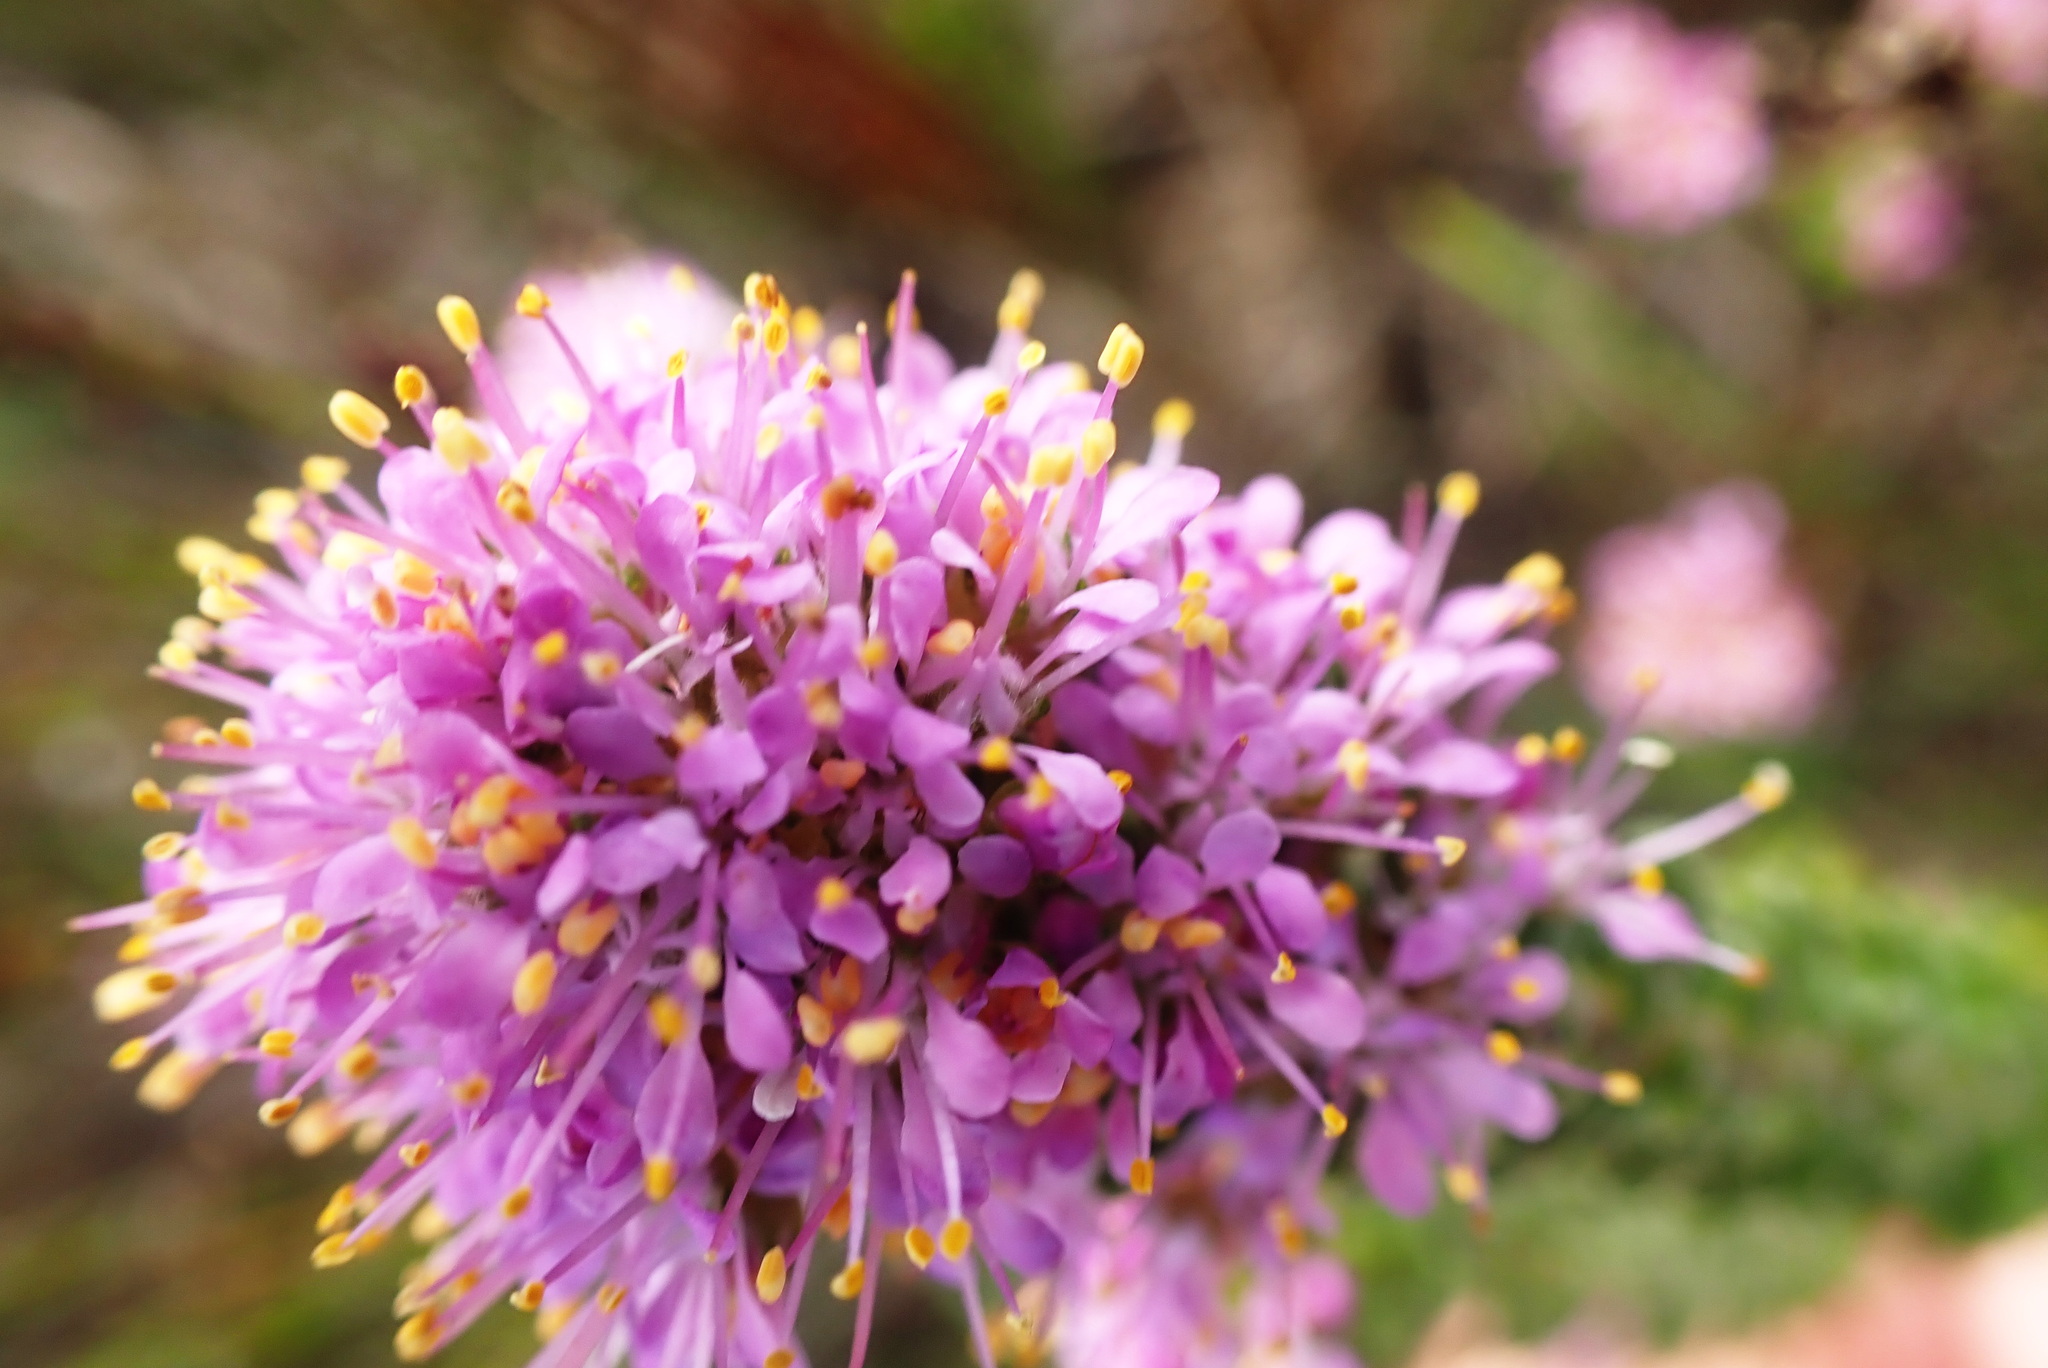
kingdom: Plantae
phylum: Tracheophyta
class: Magnoliopsida
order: Sapindales
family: Rutaceae
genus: Agathosma
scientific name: Agathosma capensis
